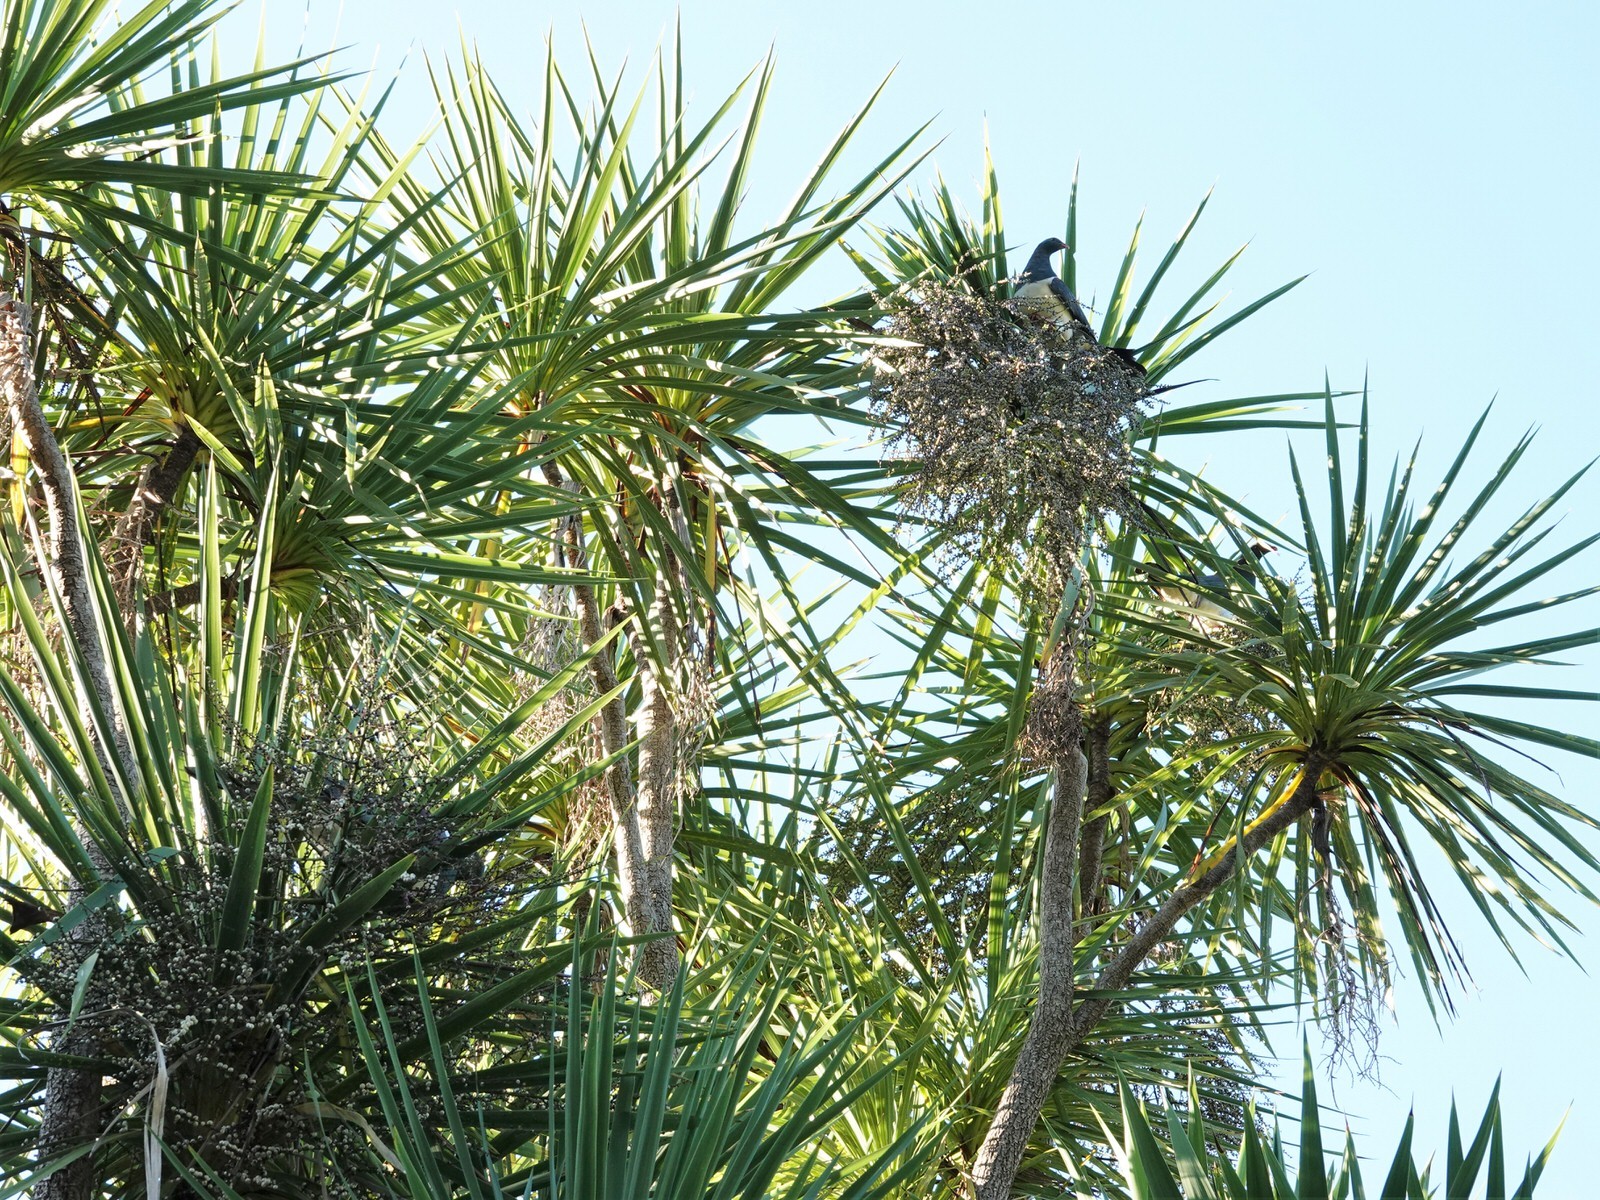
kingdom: Animalia
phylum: Chordata
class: Aves
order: Columbiformes
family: Columbidae
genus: Hemiphaga
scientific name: Hemiphaga novaeseelandiae
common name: New zealand pigeon
